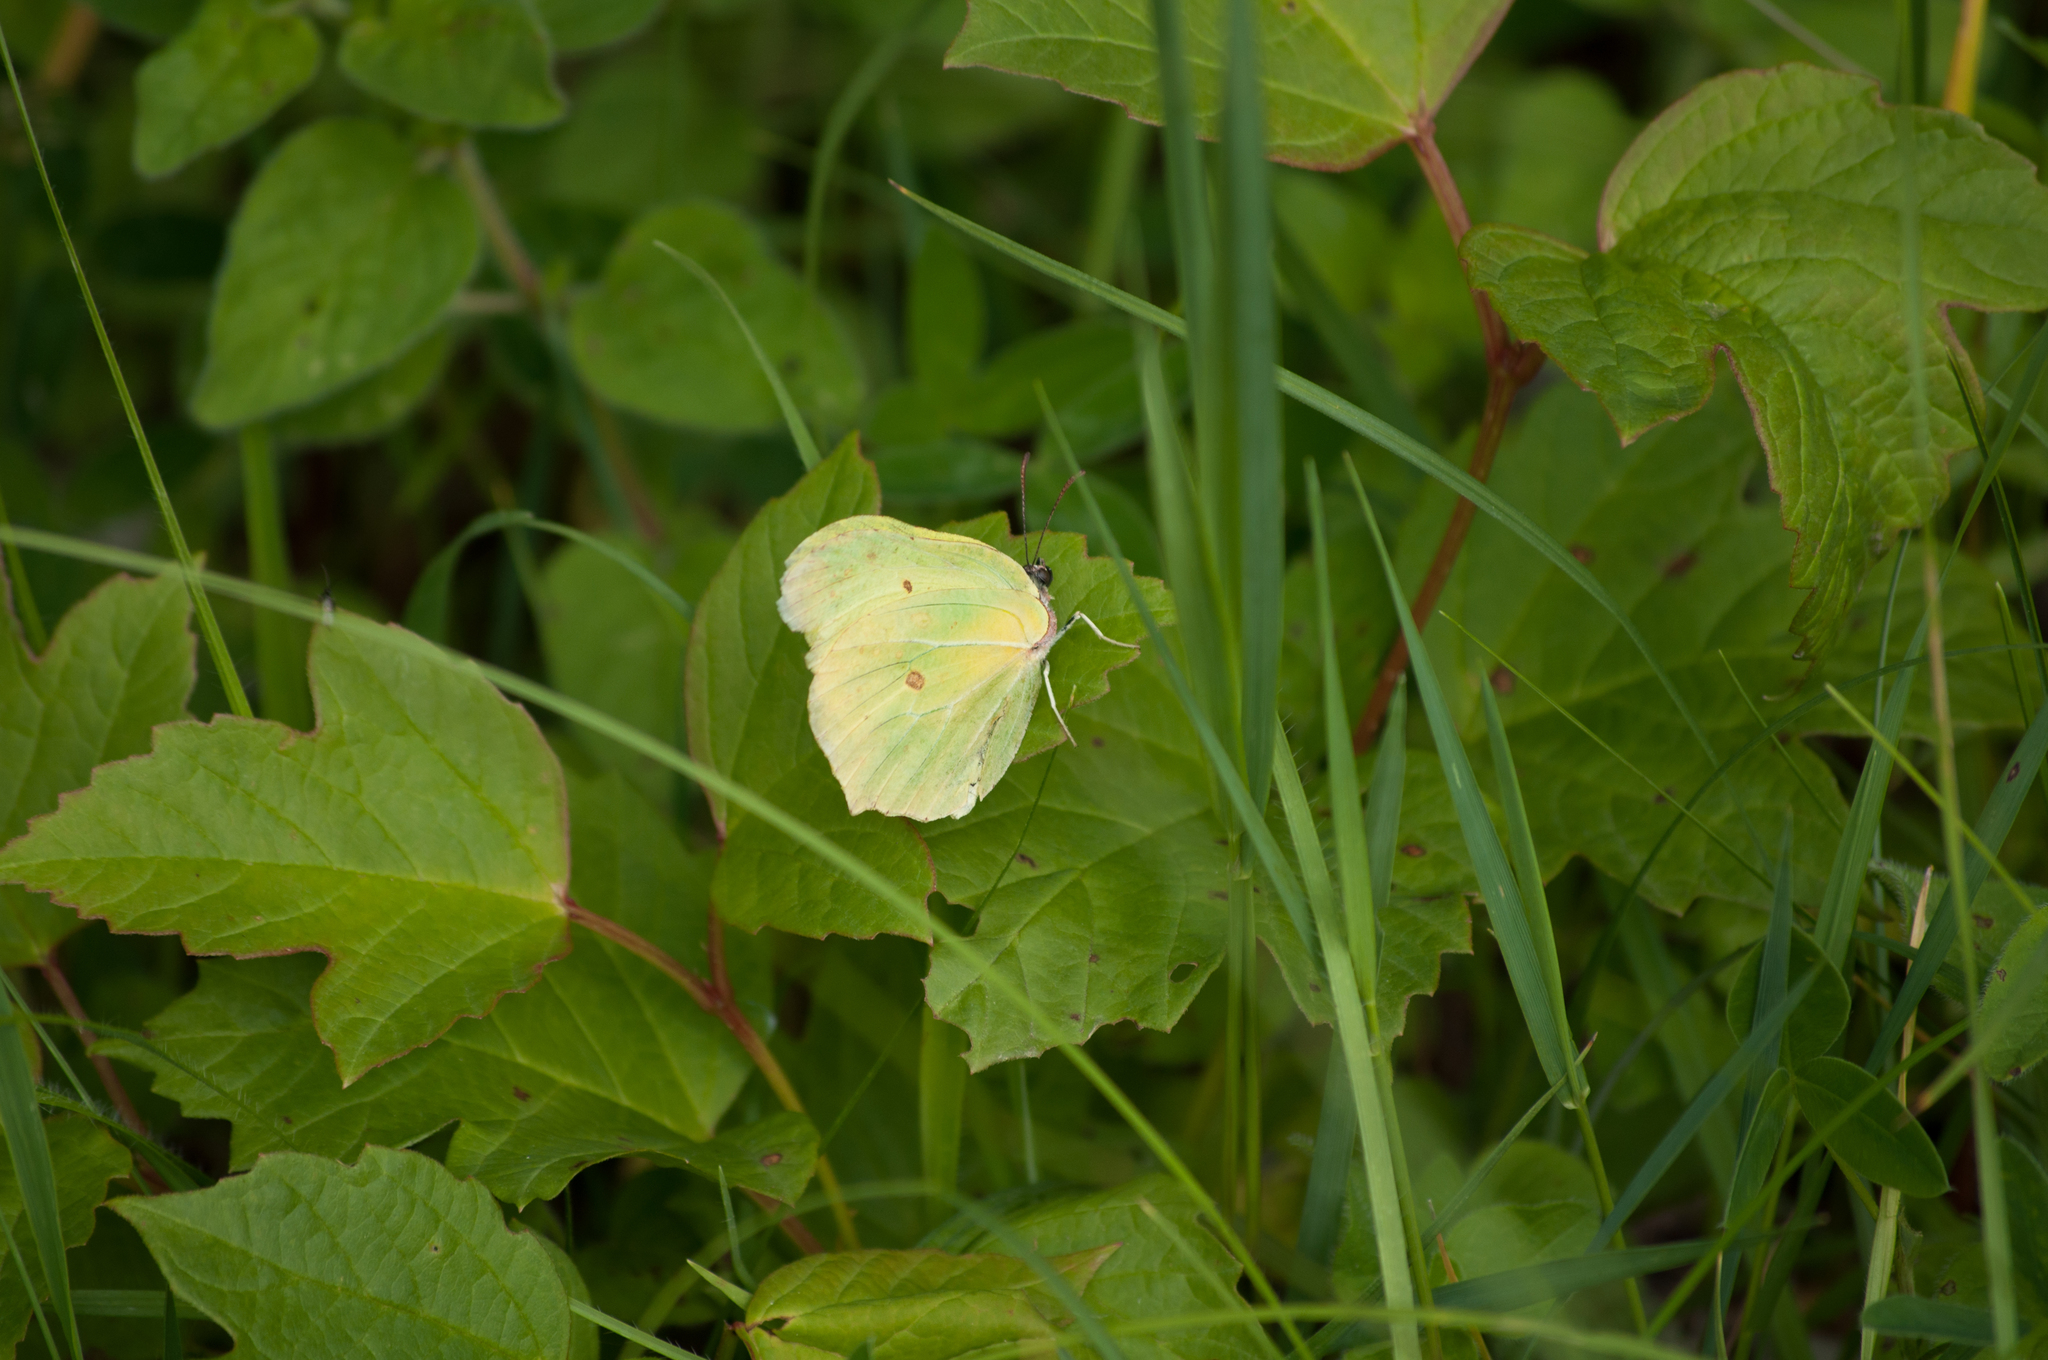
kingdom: Animalia
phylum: Arthropoda
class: Insecta
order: Lepidoptera
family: Pieridae
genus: Gonepteryx
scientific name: Gonepteryx rhamni
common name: Brimstone
